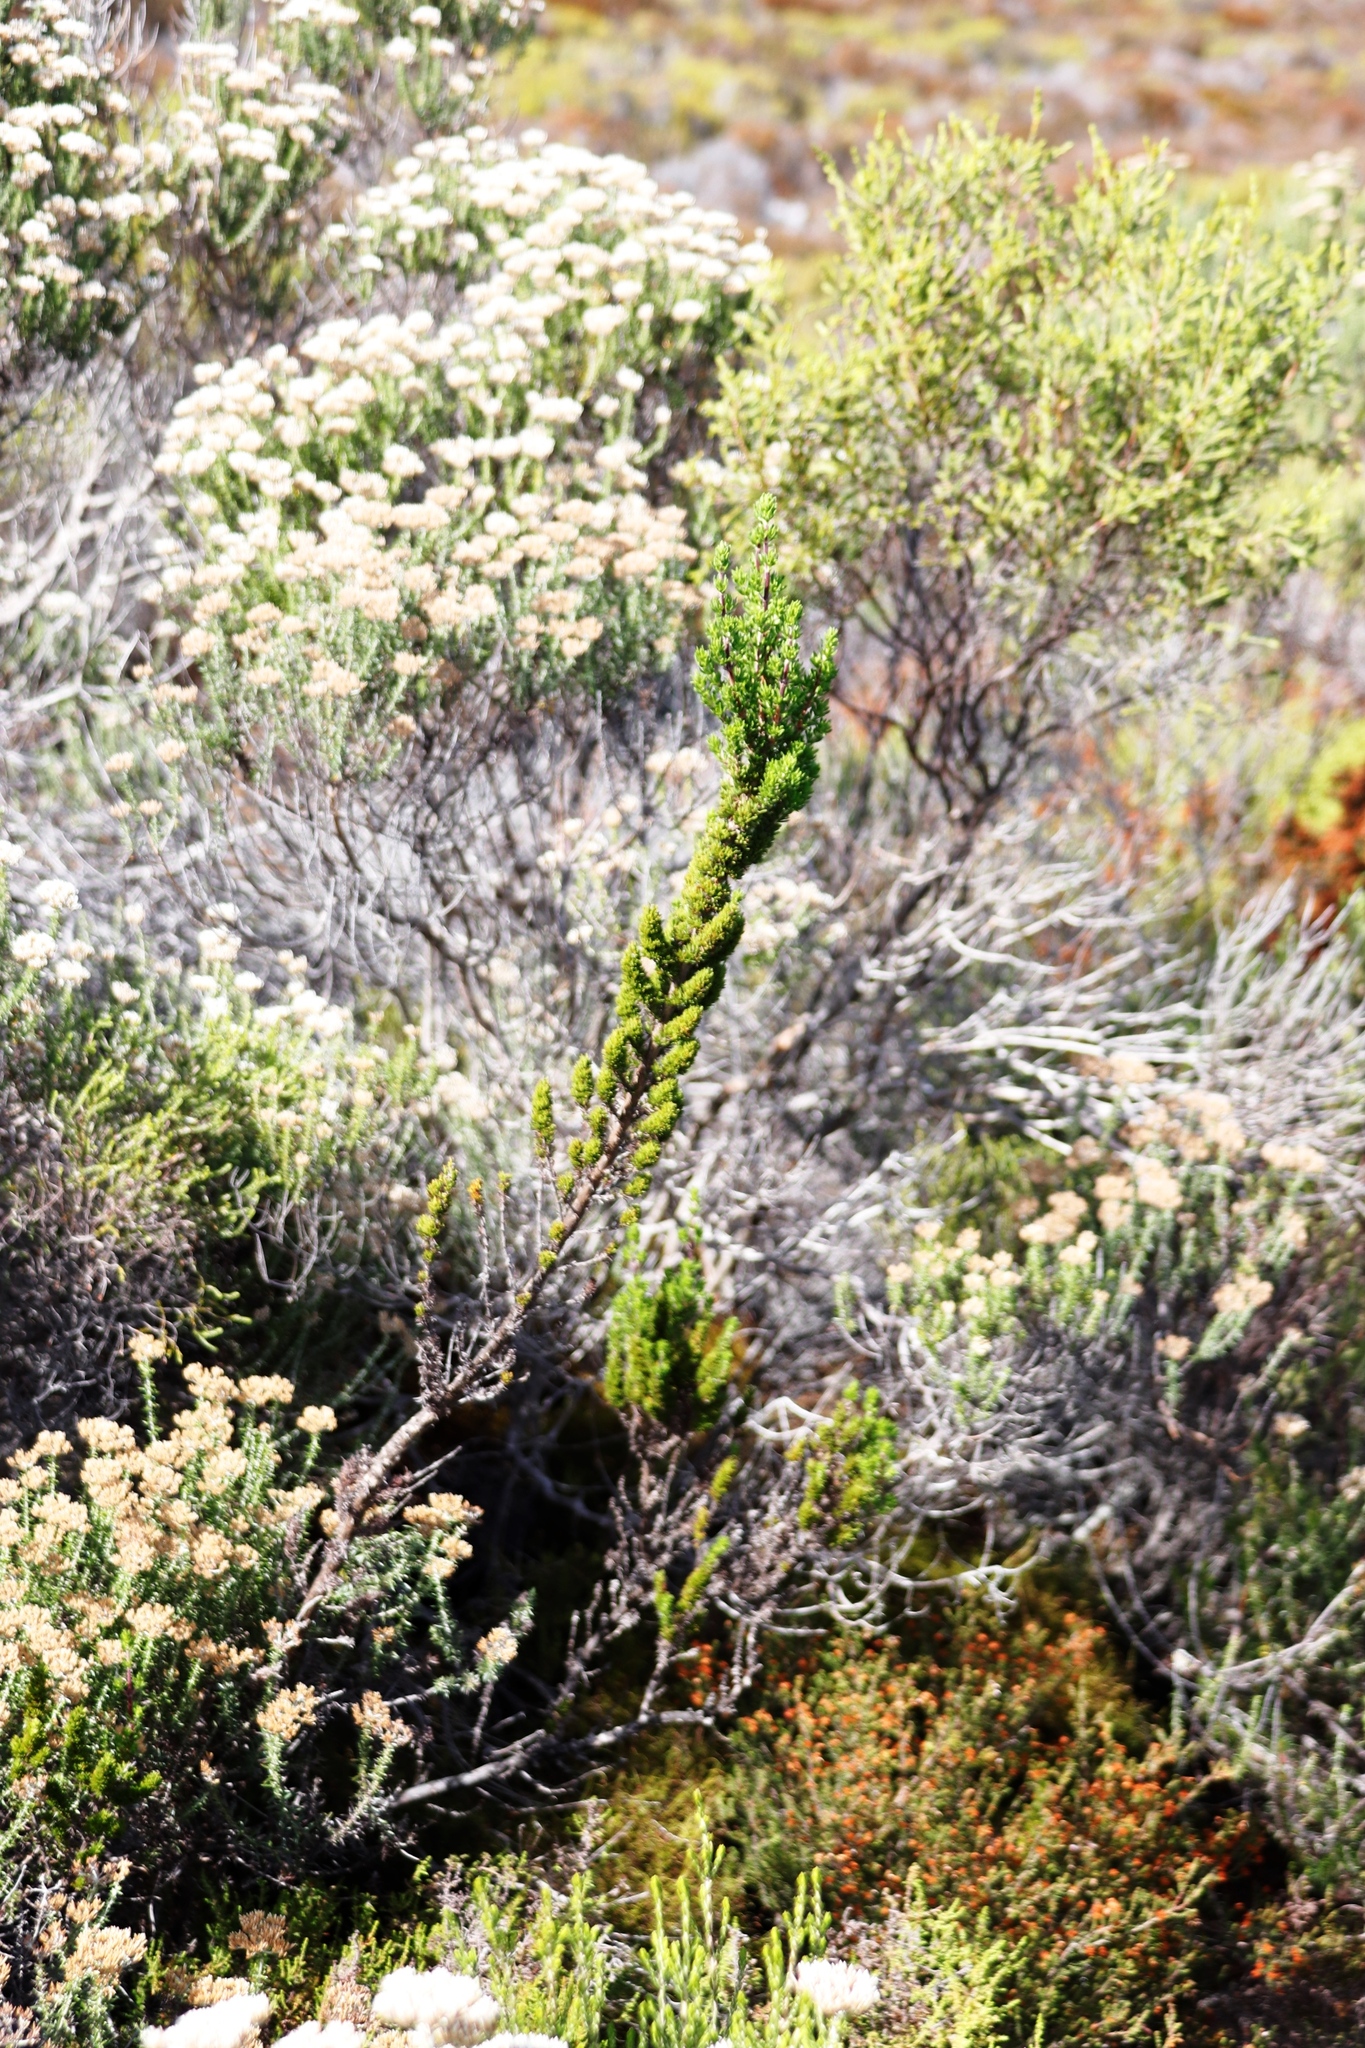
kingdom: Plantae
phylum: Tracheophyta
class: Magnoliopsida
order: Gentianales
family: Rubiaceae
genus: Anthospermum
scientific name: Anthospermum aethiopicum
